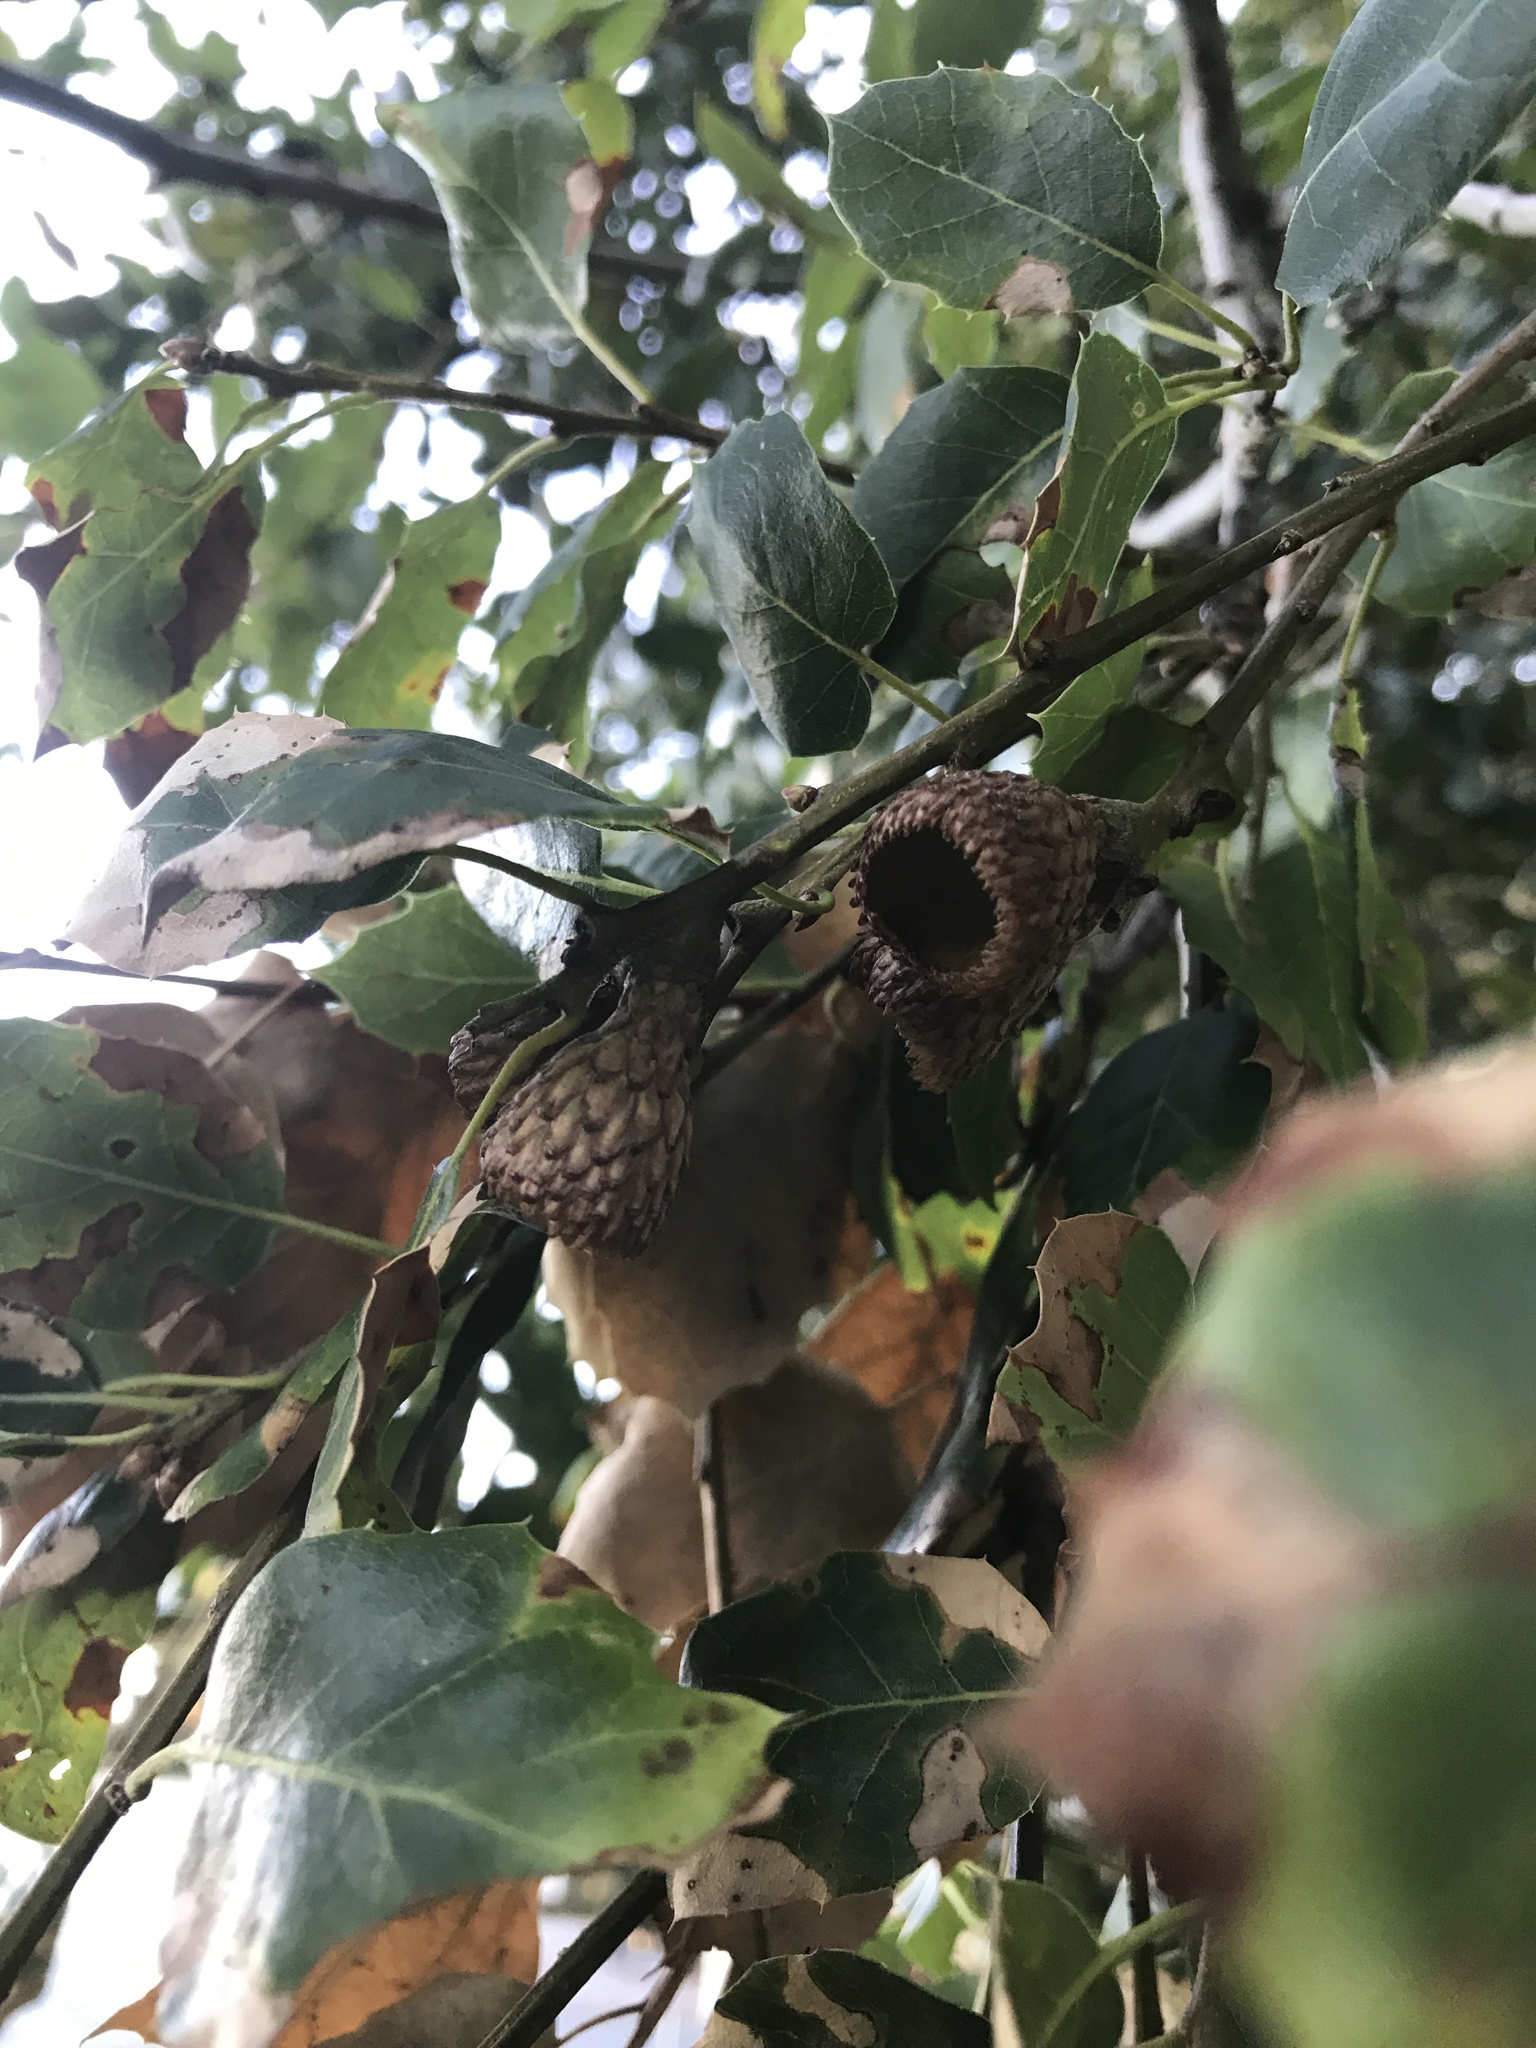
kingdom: Plantae
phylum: Tracheophyta
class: Magnoliopsida
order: Fagales
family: Fagaceae
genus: Quercus
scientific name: Quercus agrifolia
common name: California live oak
